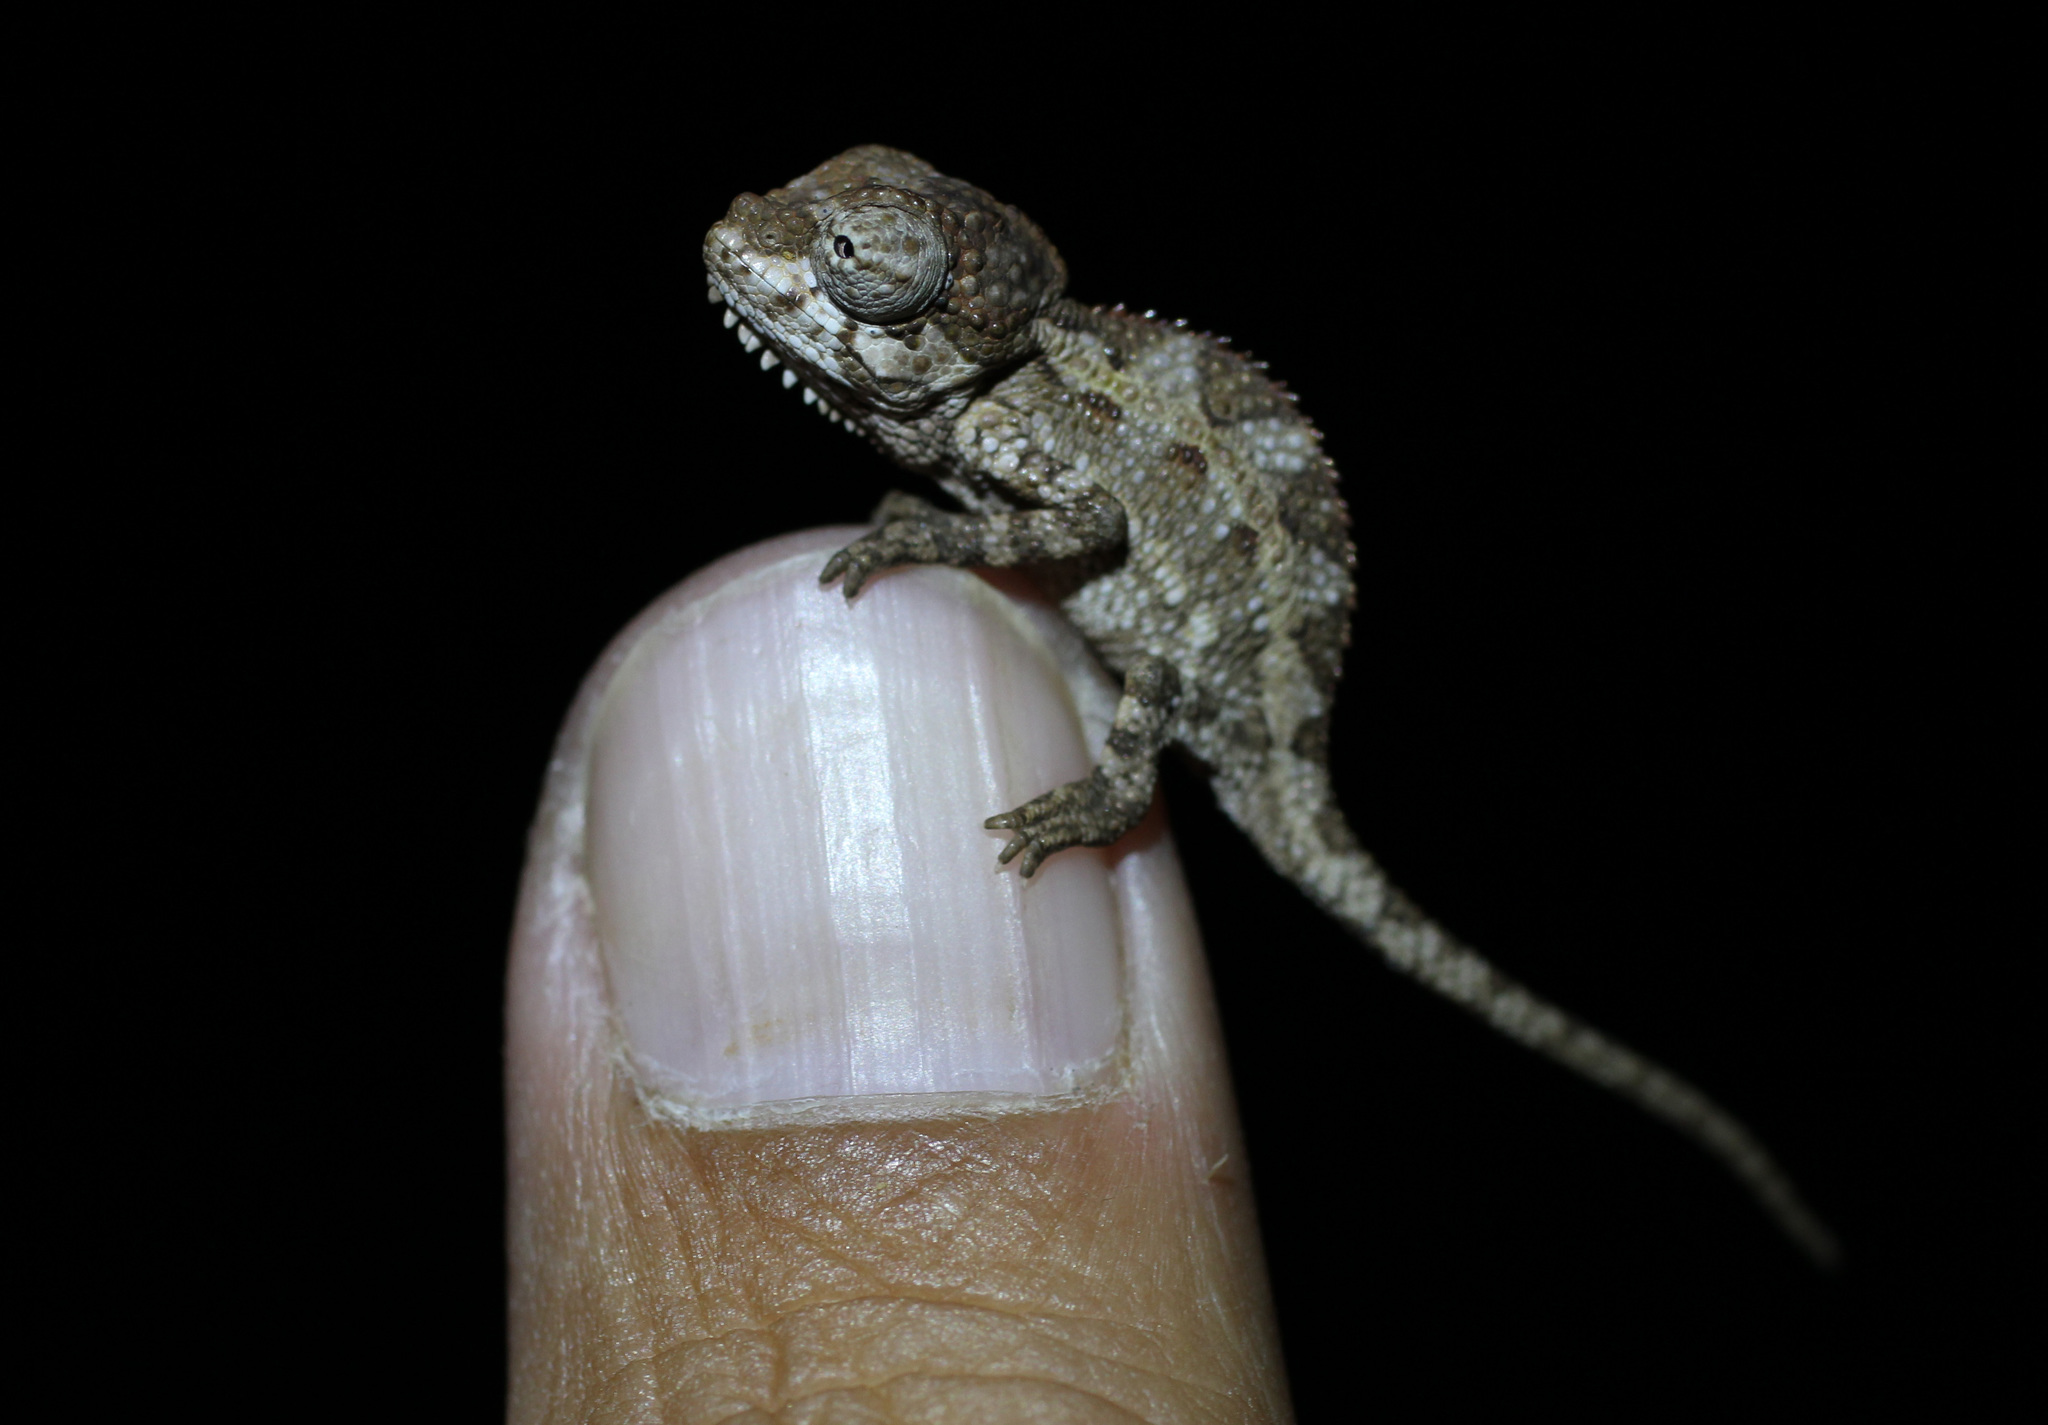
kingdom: Animalia
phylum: Chordata
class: Squamata
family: Chamaeleonidae
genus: Trioceros
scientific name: Trioceros hoehnelii
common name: High-casqued chameleon
